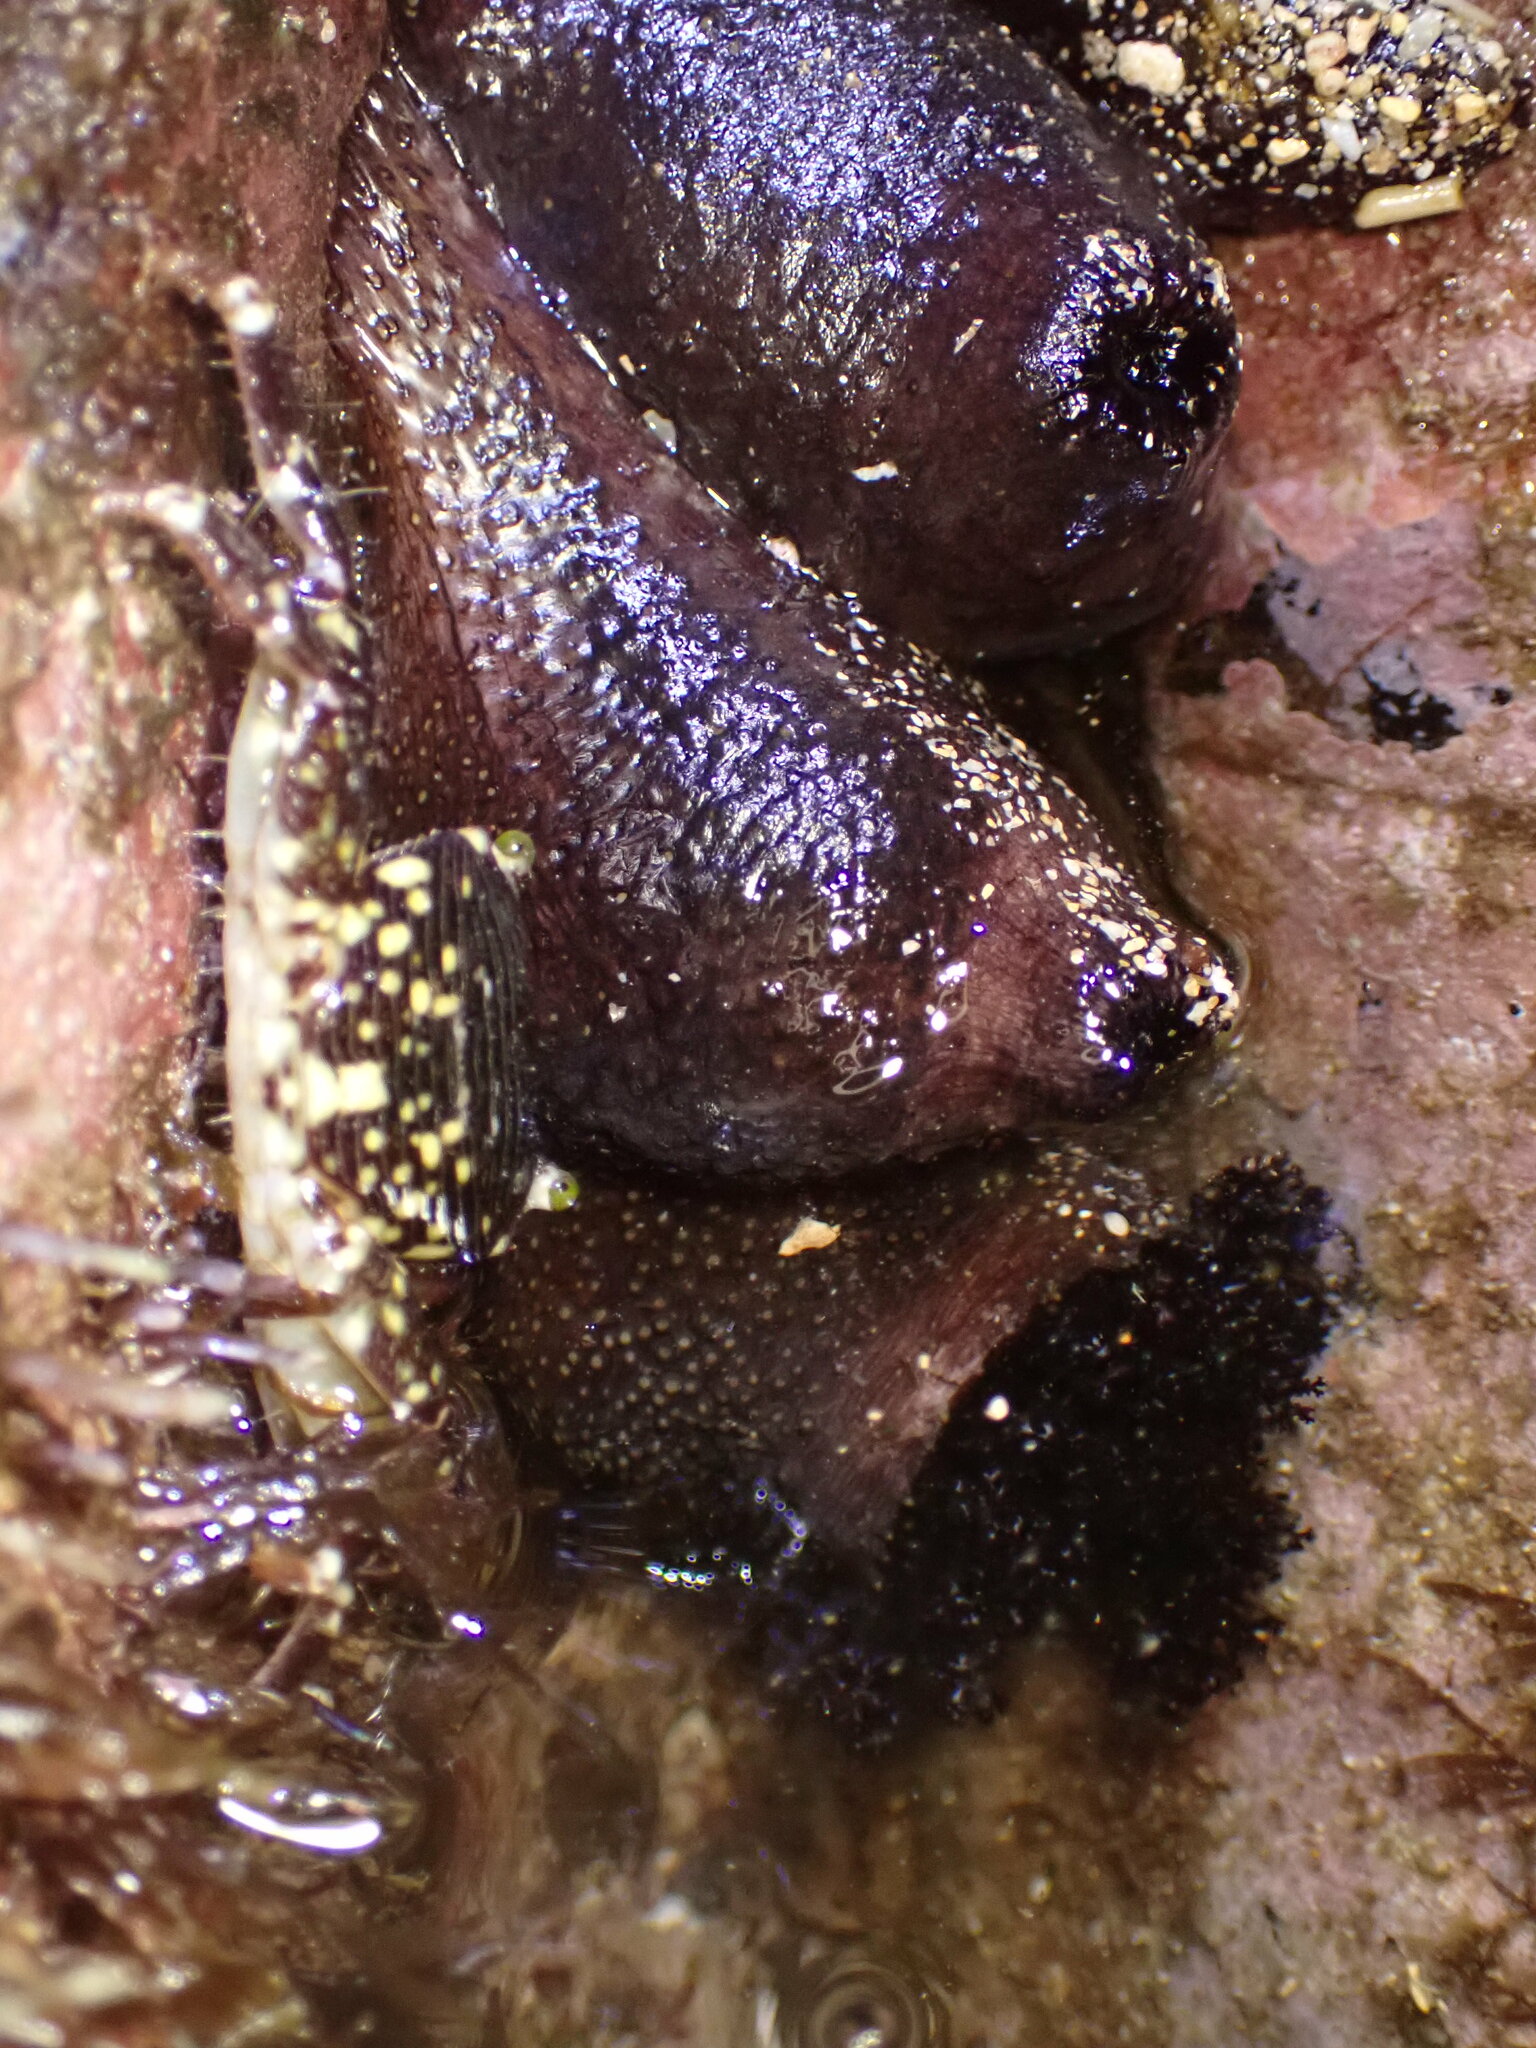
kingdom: Animalia
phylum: Echinodermata
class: Holothuroidea
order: Holothuriida
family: Holothuriidae
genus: Holothuria
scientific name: Holothuria cinerascens
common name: Ashy sea cucumber
